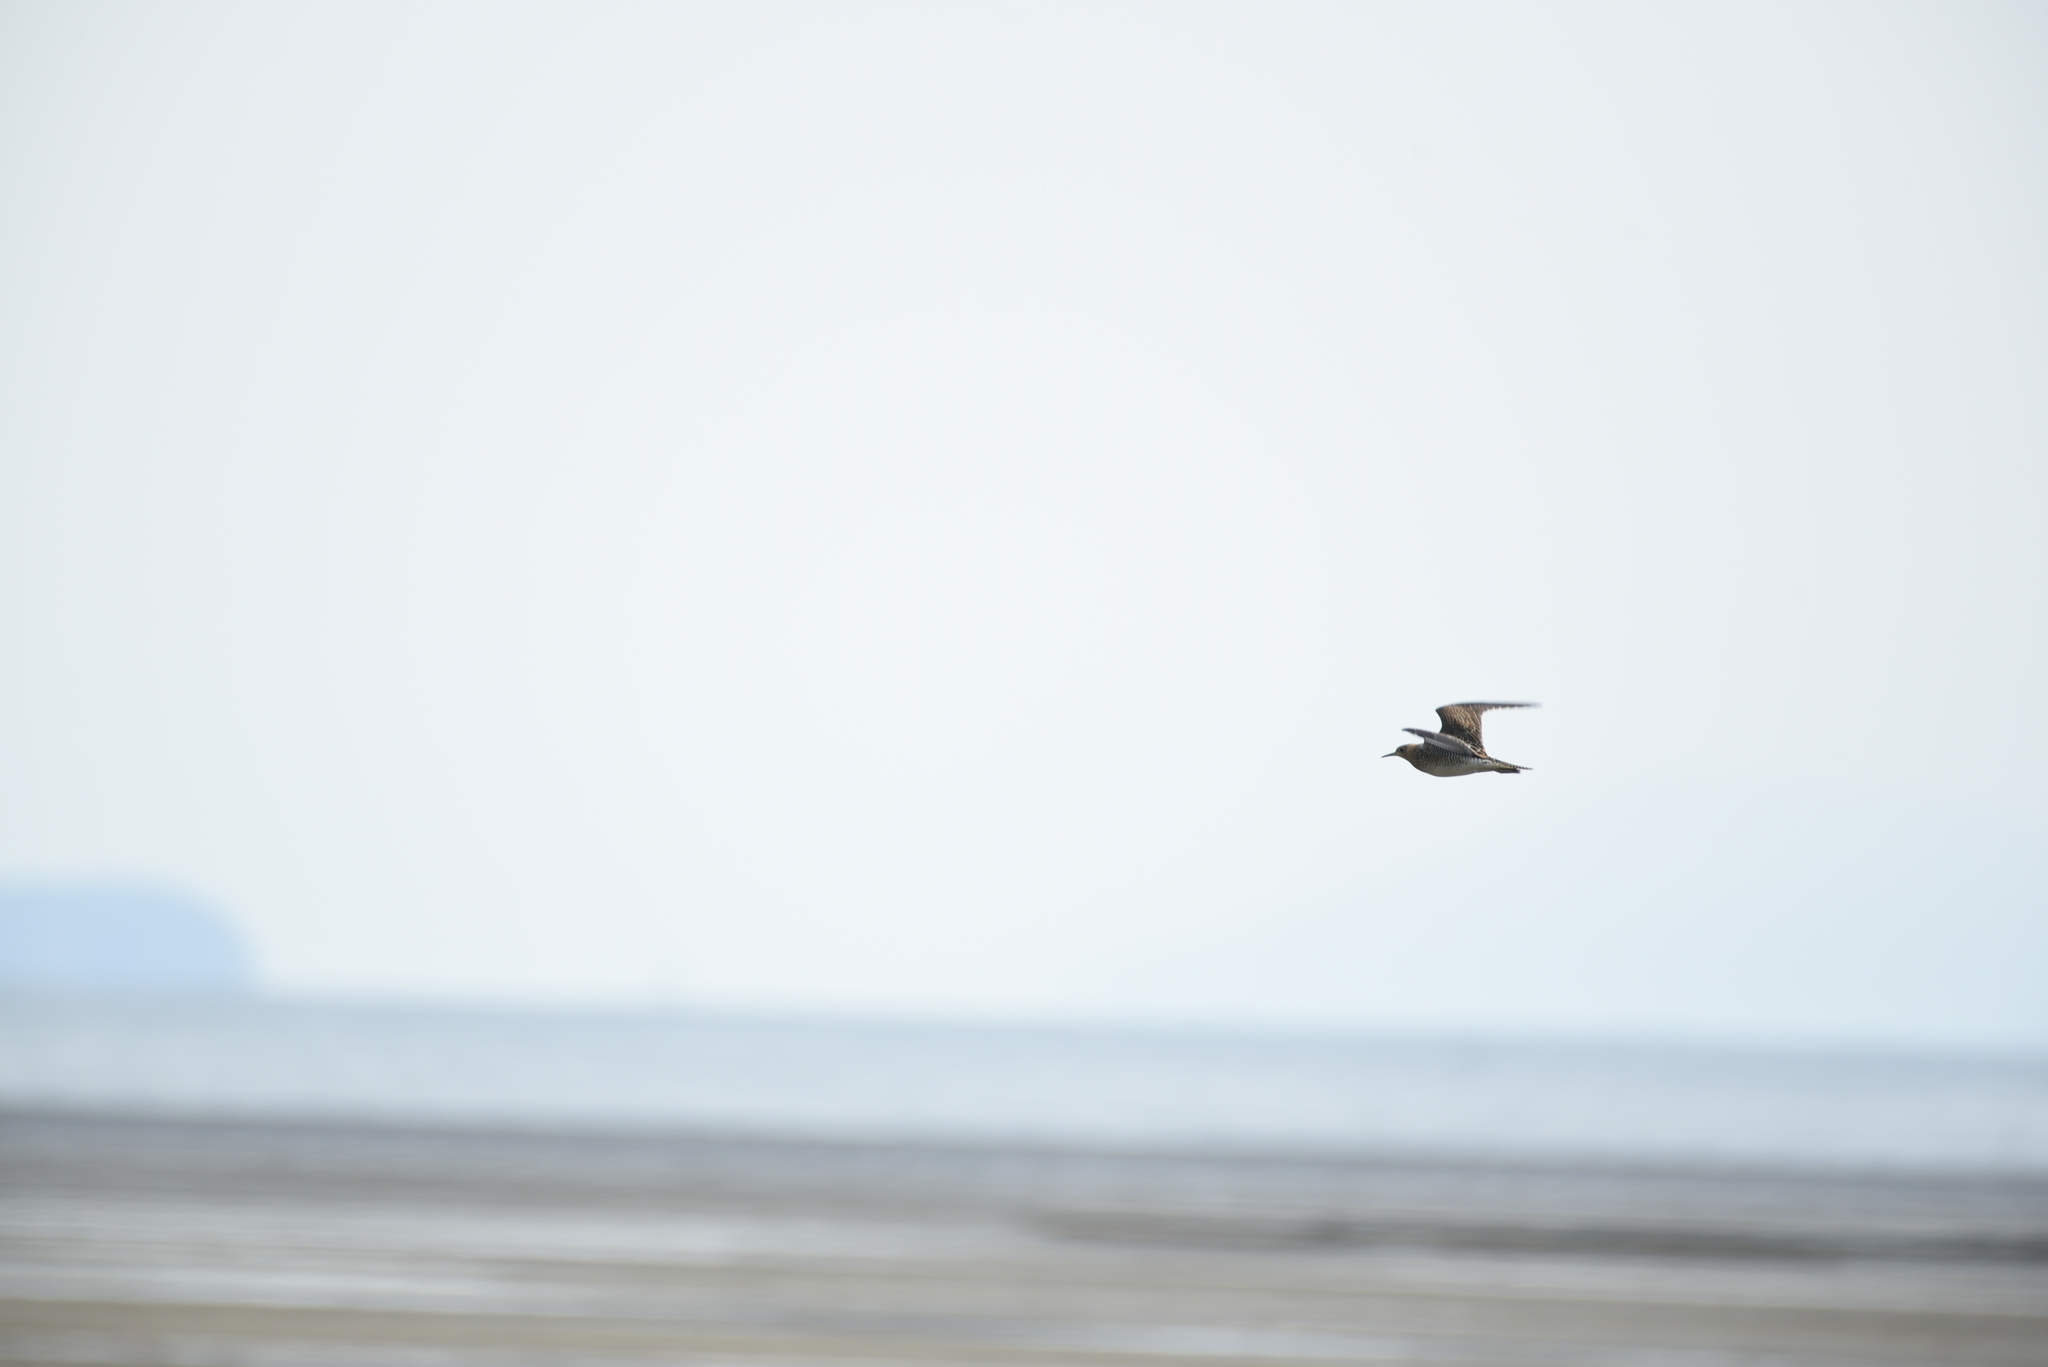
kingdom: Animalia
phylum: Chordata
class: Aves
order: Charadriiformes
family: Scolopacidae
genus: Bartramia
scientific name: Bartramia longicauda
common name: Upland sandpiper
